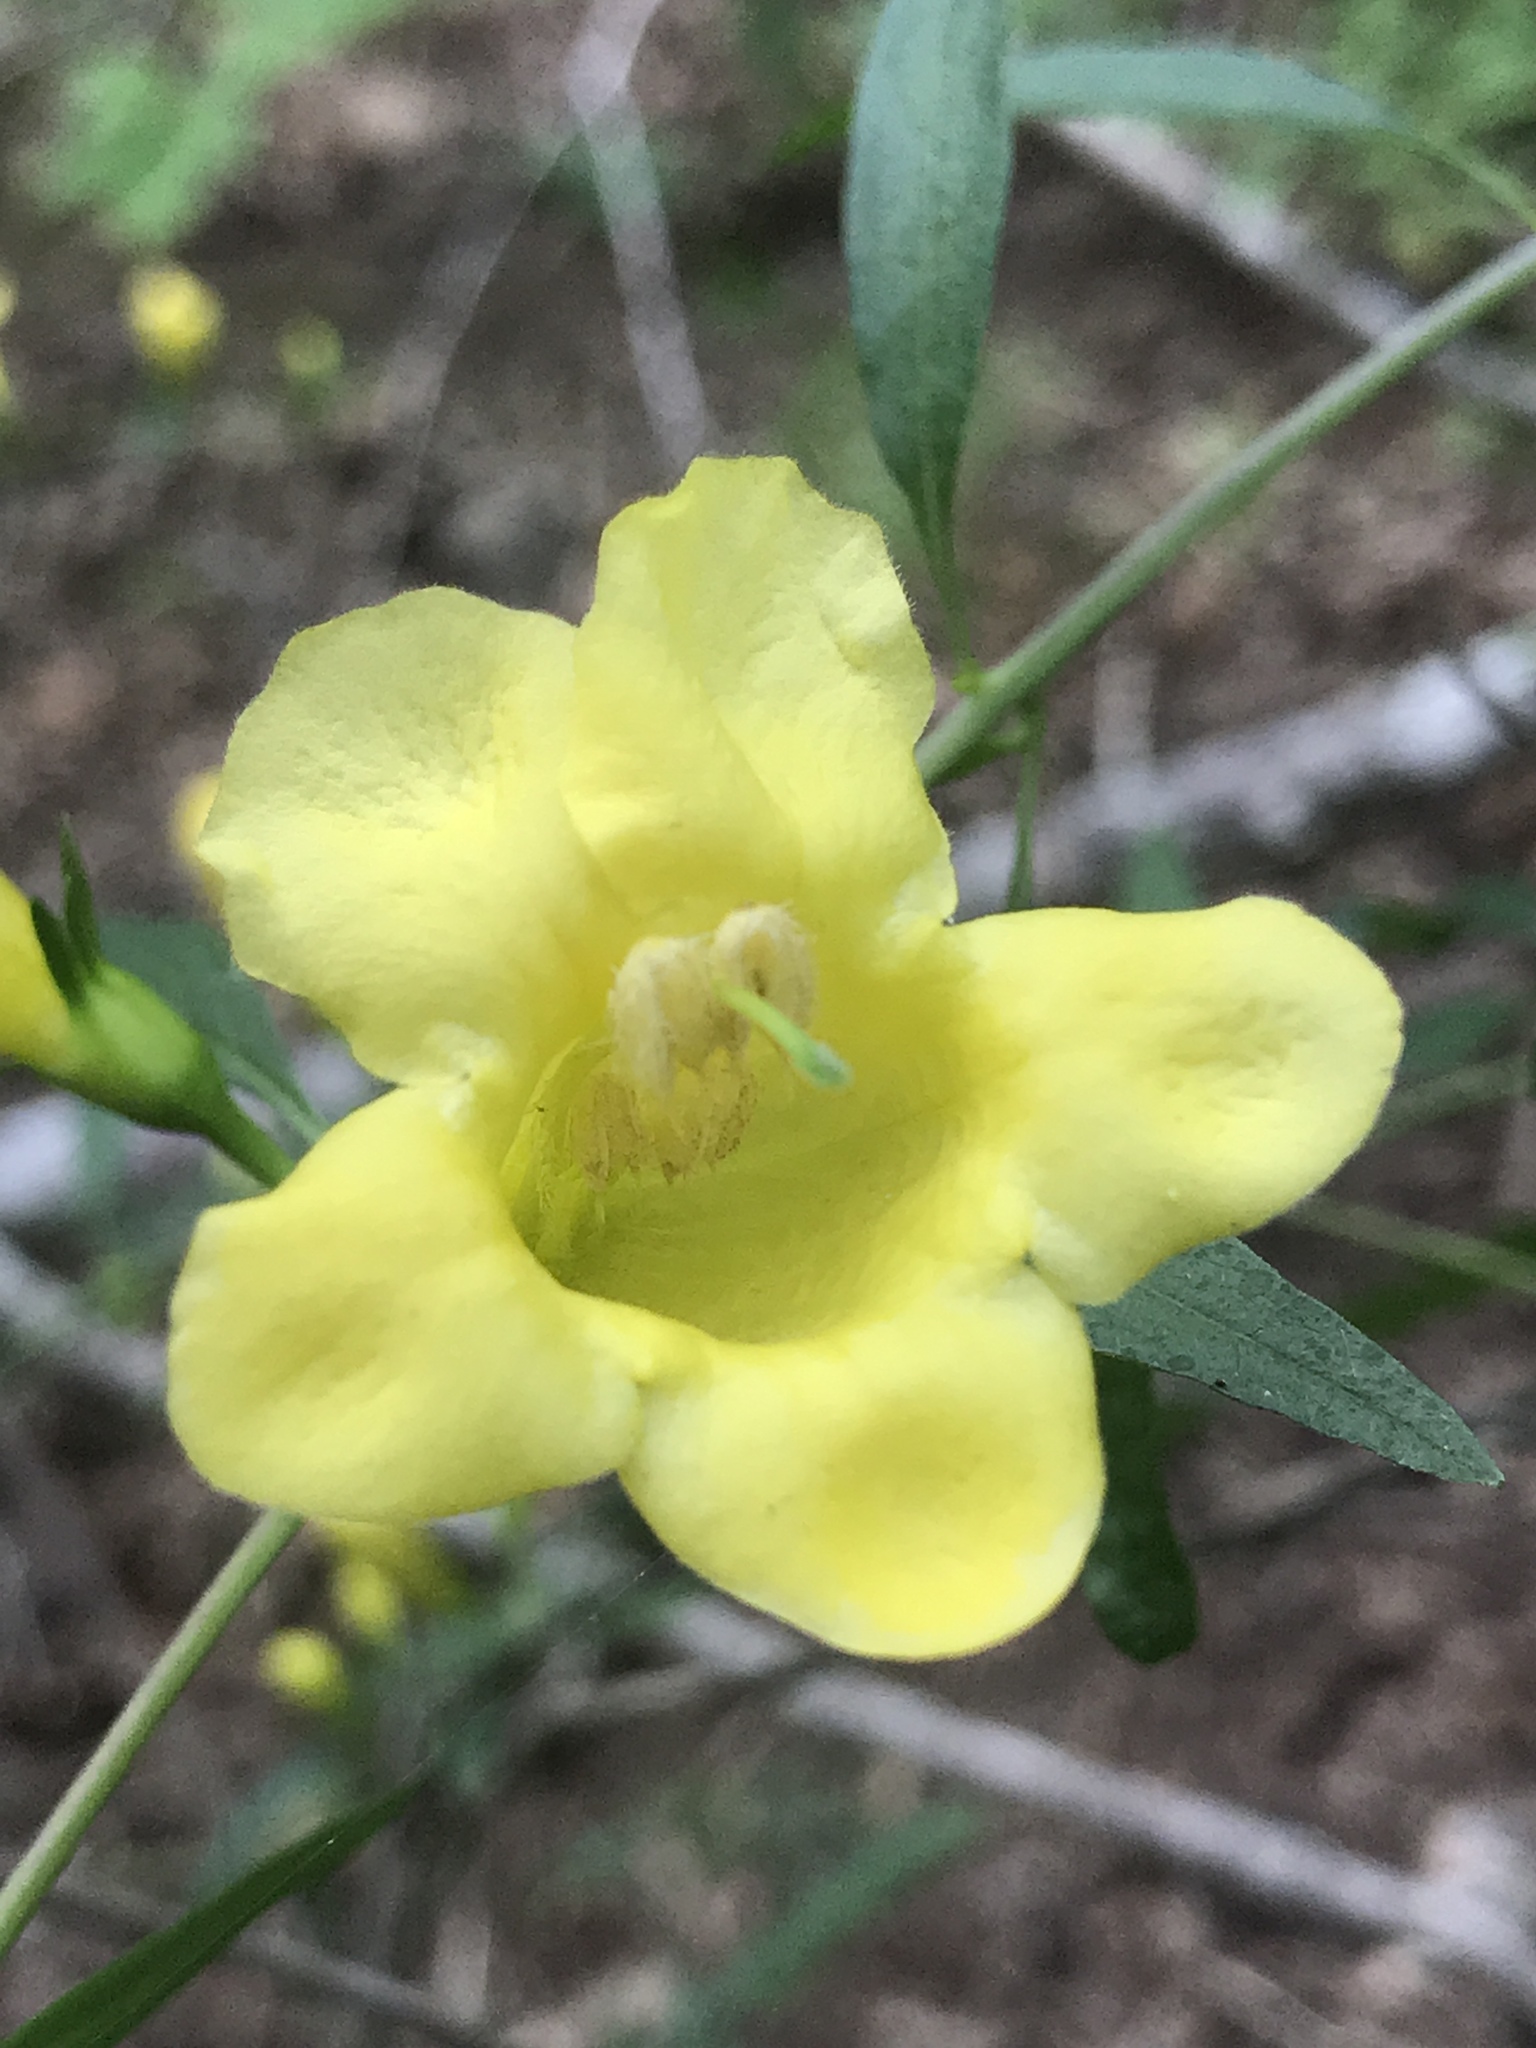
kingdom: Plantae
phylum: Tracheophyta
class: Magnoliopsida
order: Lamiales
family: Orobanchaceae
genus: Aureolaria
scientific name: Aureolaria flava
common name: Smooth false foxglove
